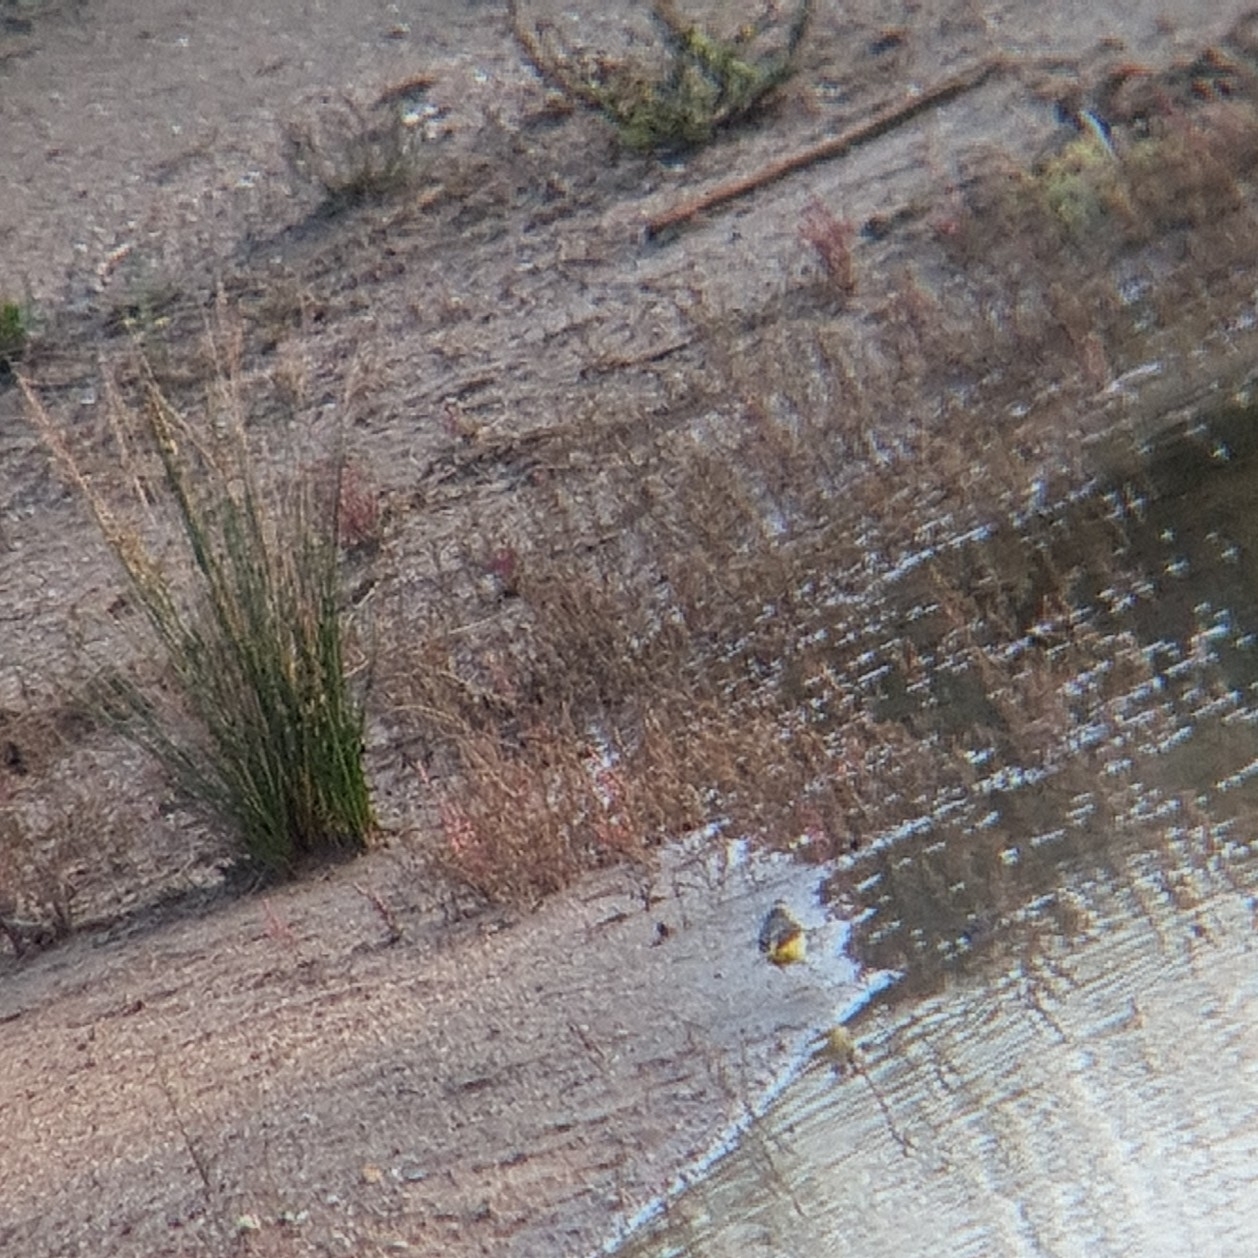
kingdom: Animalia
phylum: Chordata
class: Aves
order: Passeriformes
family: Motacillidae
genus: Motacilla
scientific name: Motacilla cinerea
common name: Grey wagtail
